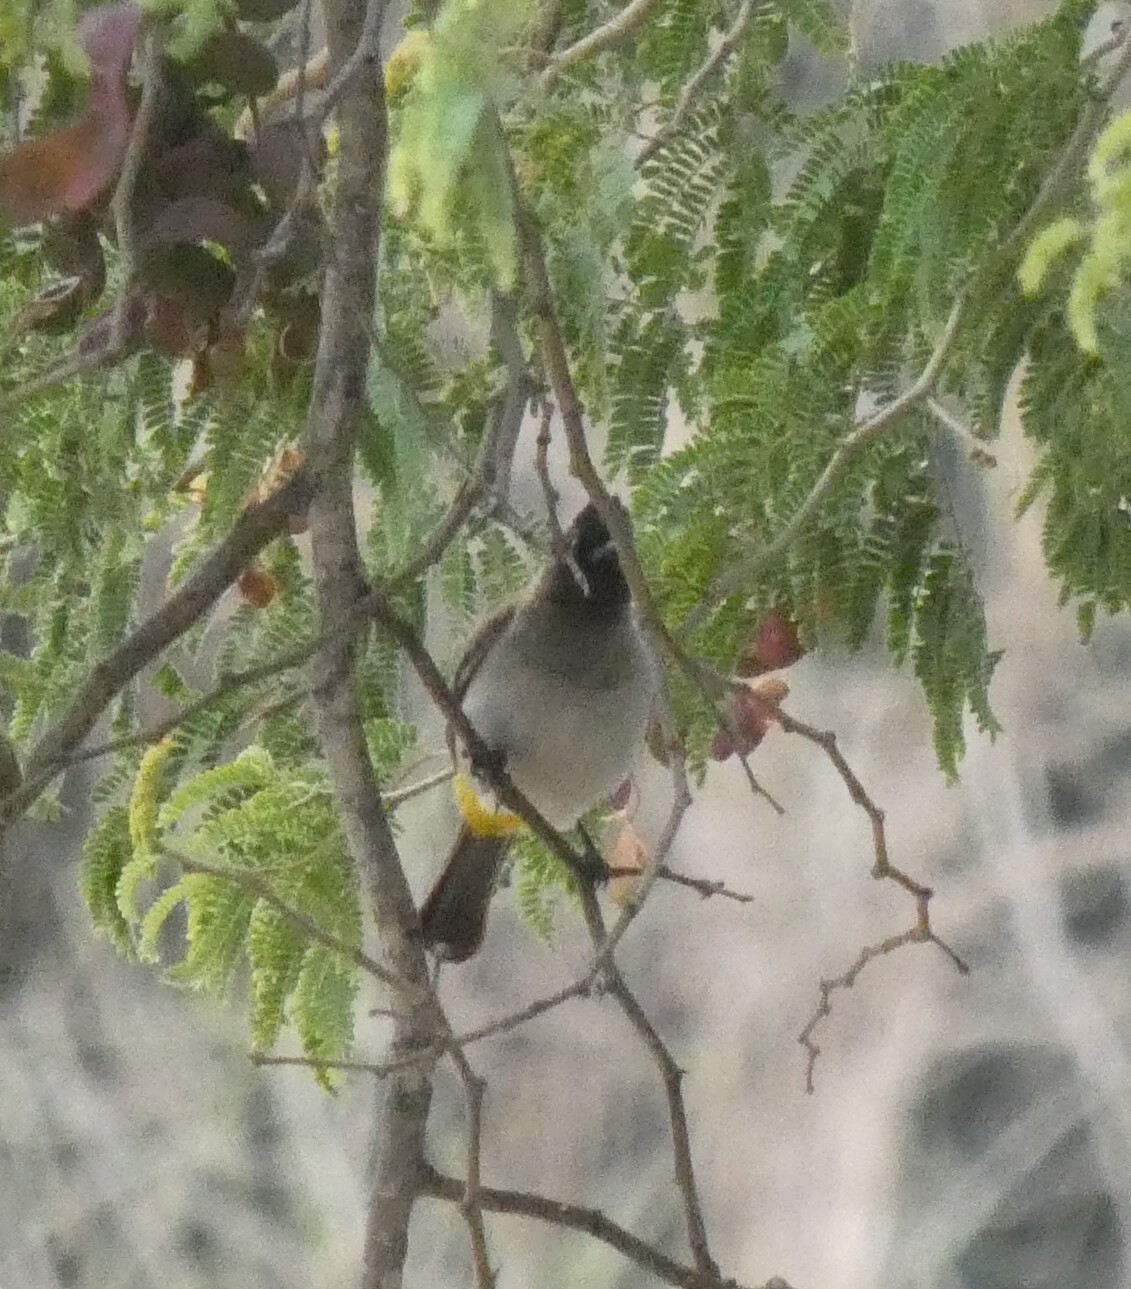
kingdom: Animalia
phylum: Chordata
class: Aves
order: Passeriformes
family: Pycnonotidae
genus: Pycnonotus
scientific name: Pycnonotus barbatus
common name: Common bulbul
